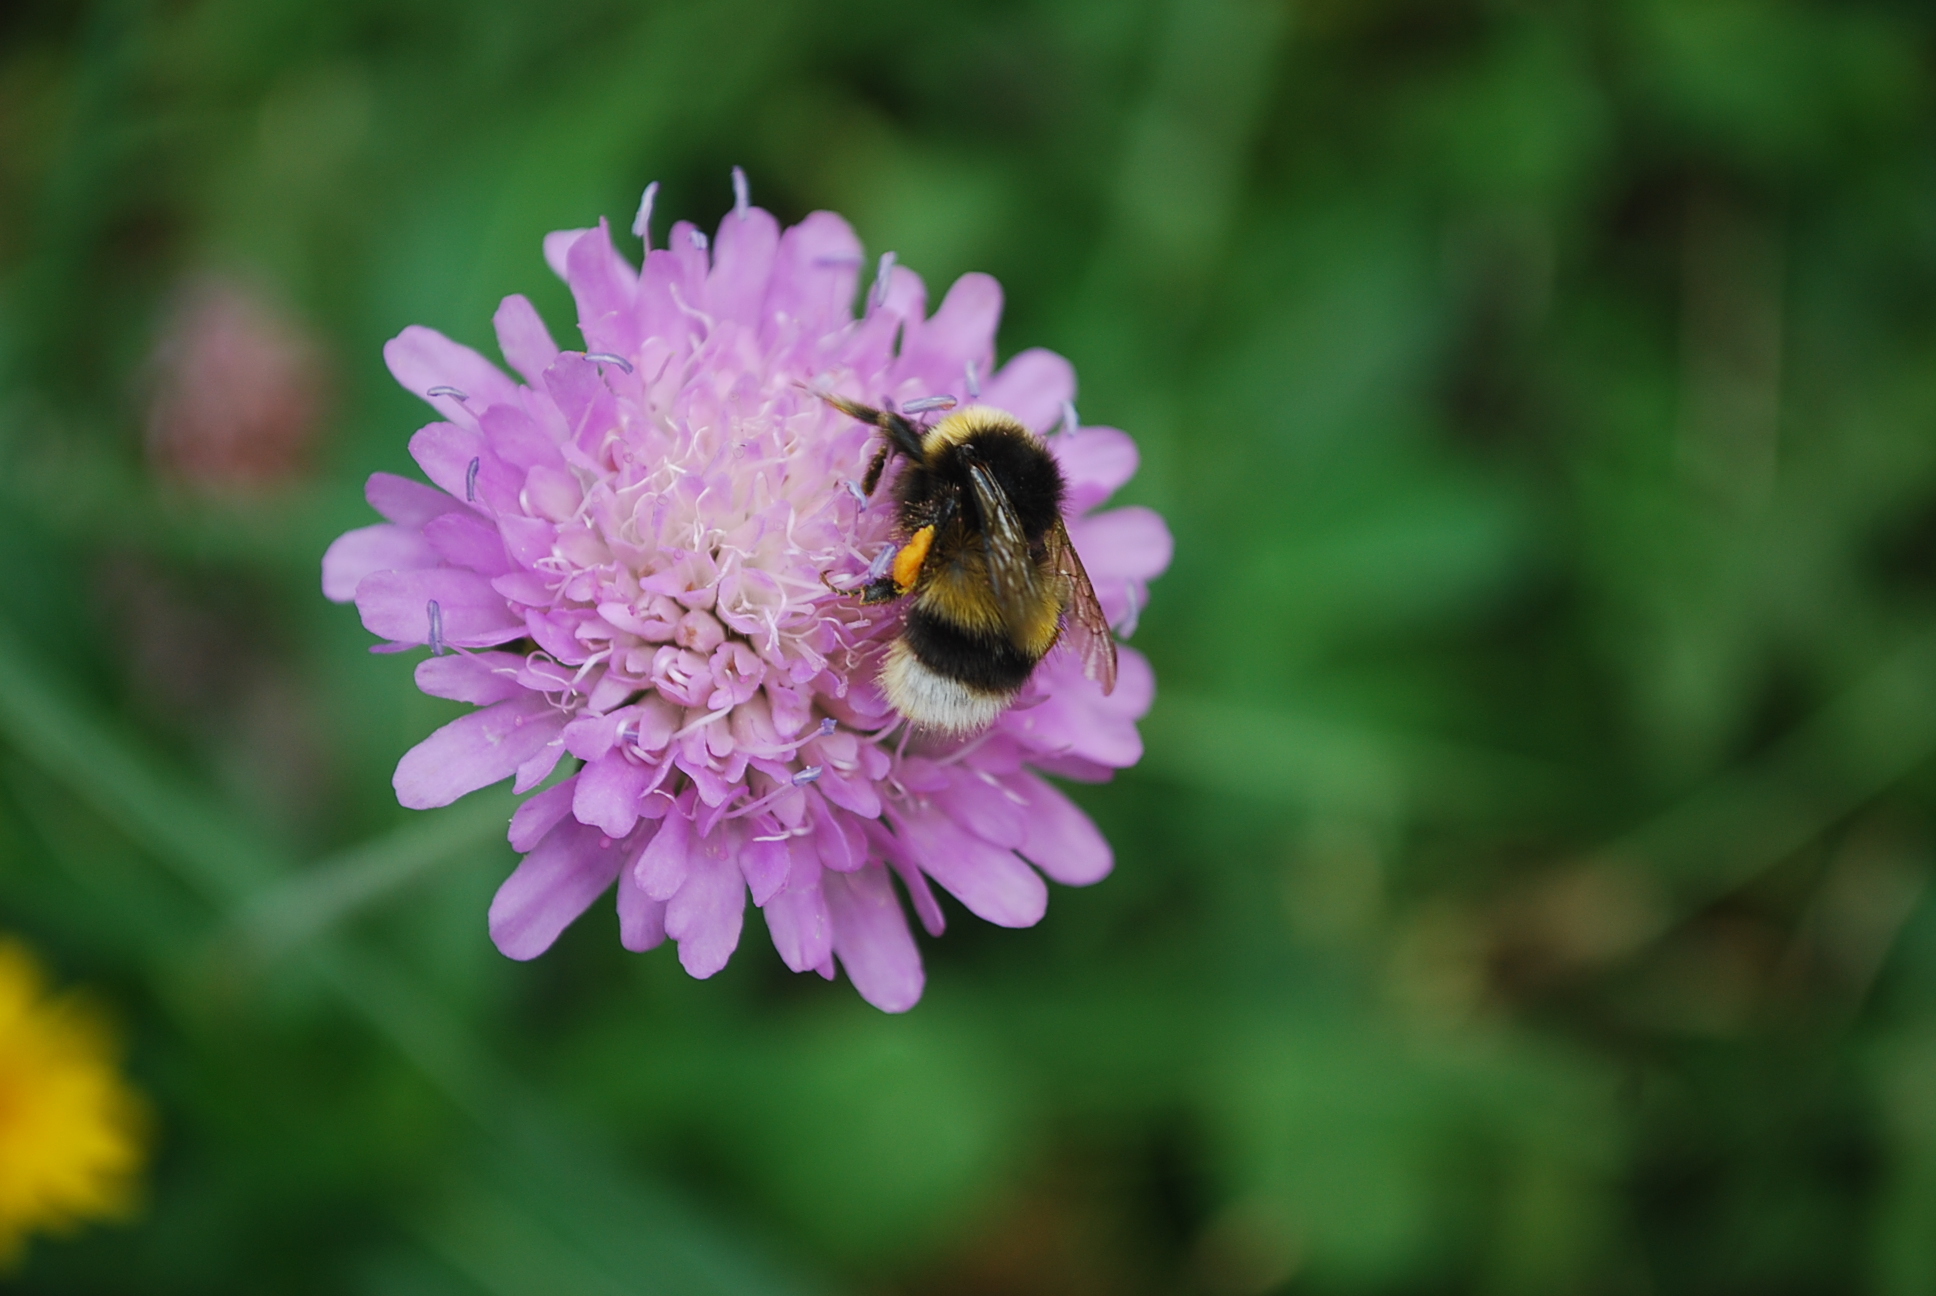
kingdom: Animalia
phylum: Arthropoda
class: Insecta
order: Hymenoptera
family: Apidae
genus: Bombus
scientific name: Bombus terrestris
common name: Buff-tailed bumblebee
